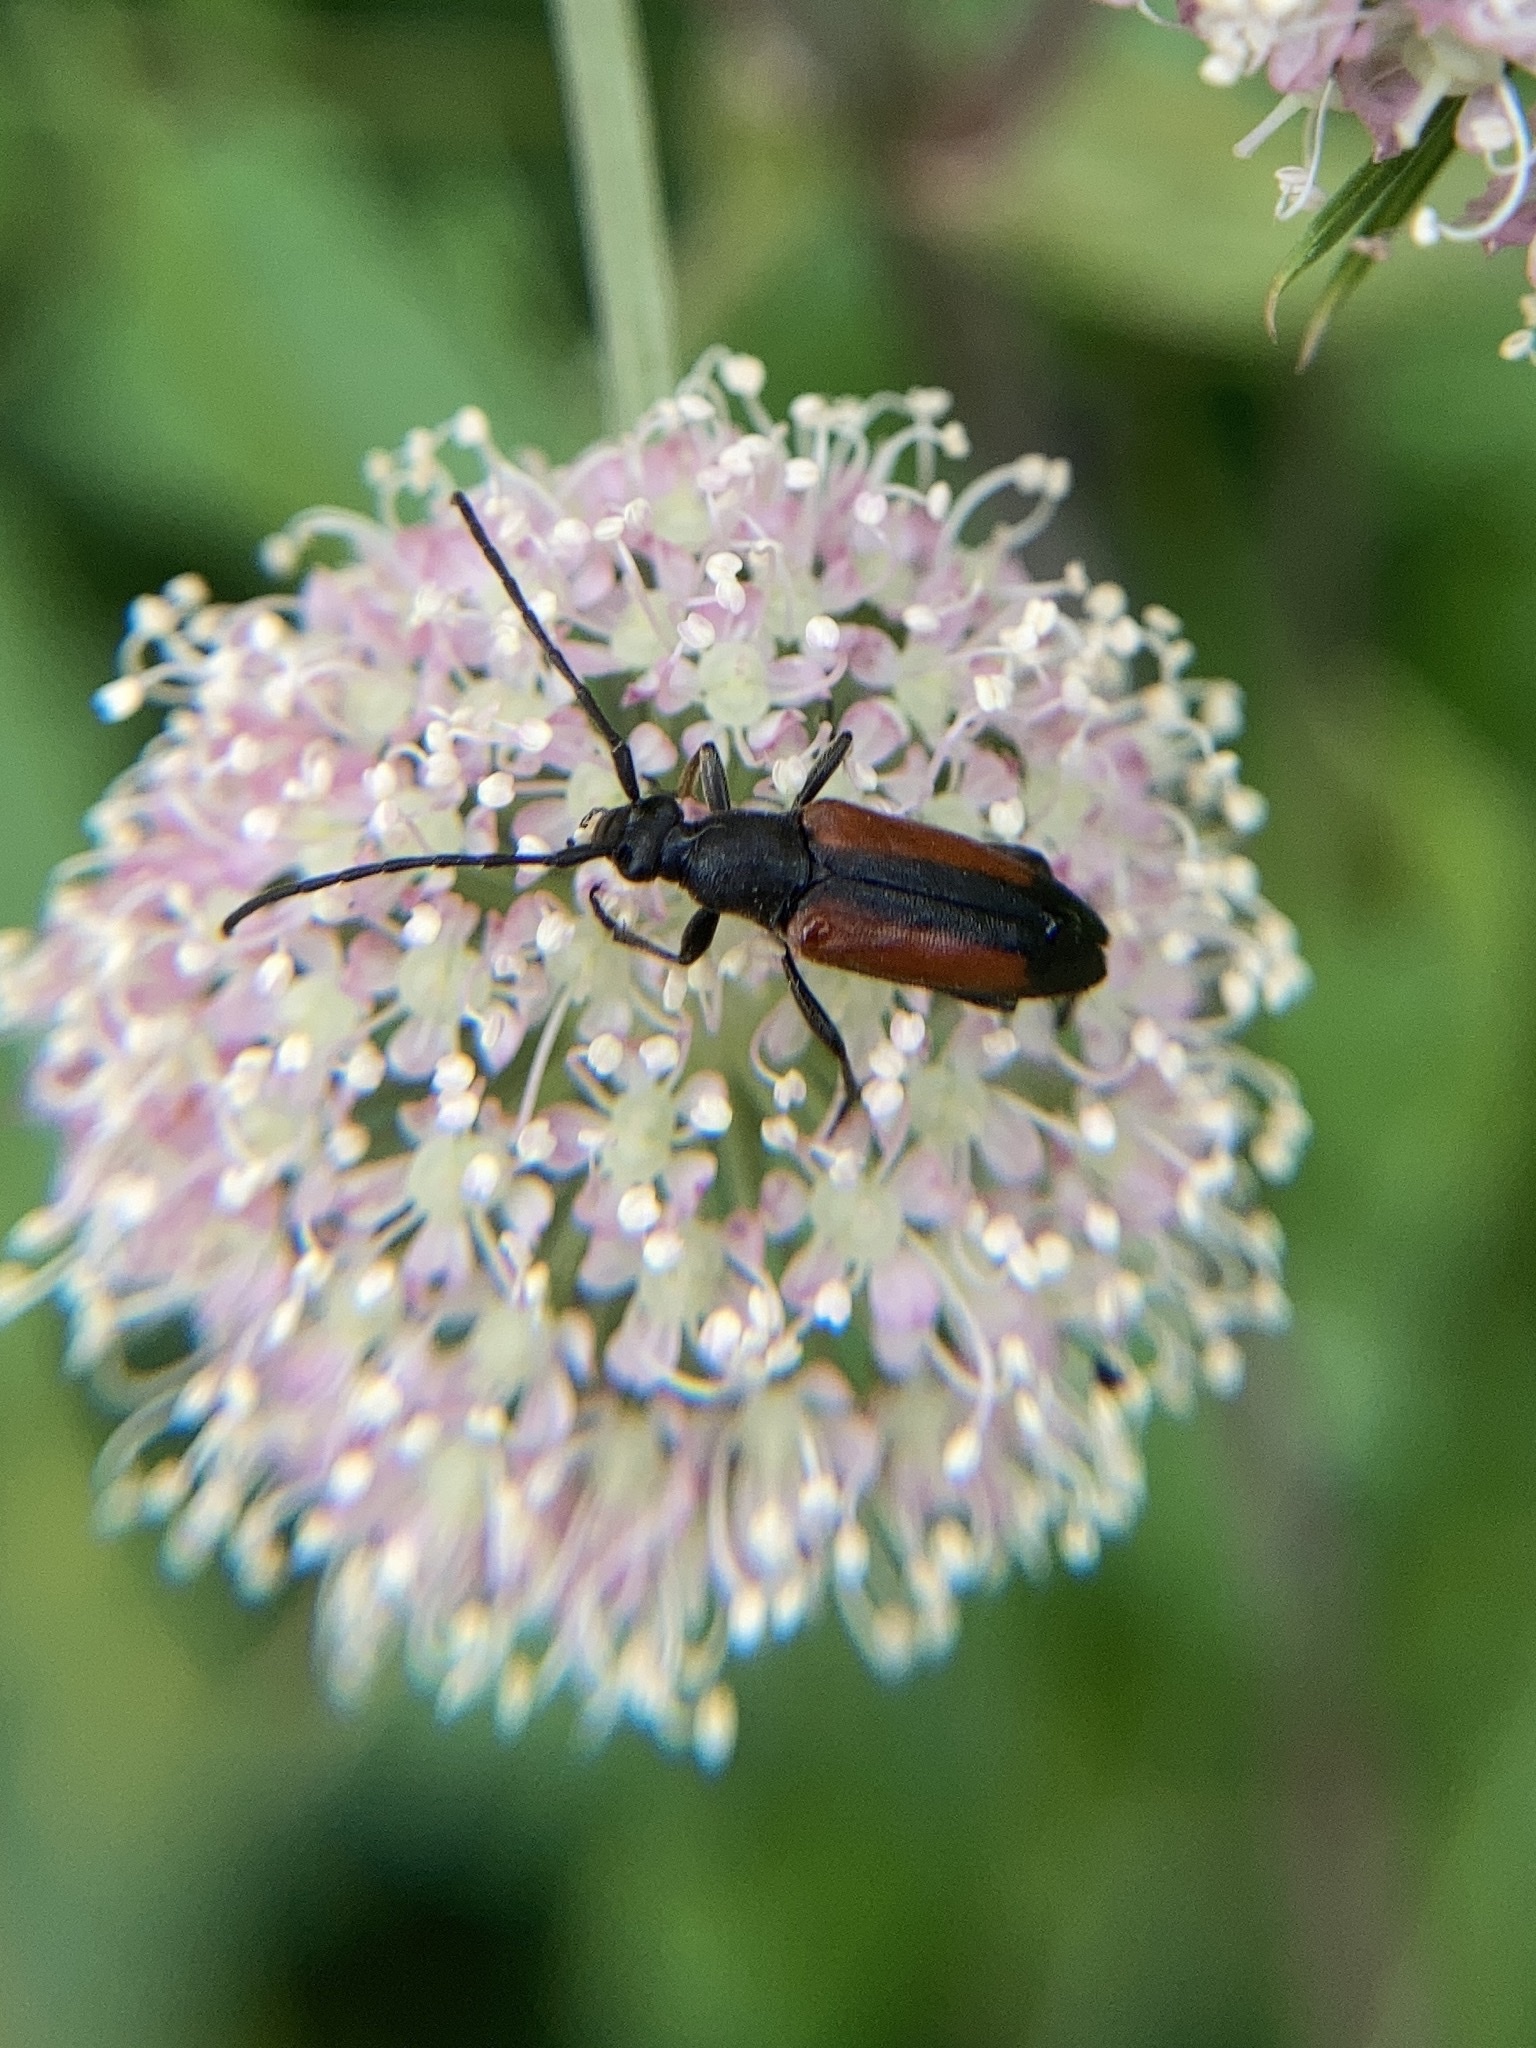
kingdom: Animalia
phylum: Arthropoda
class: Insecta
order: Coleoptera
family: Cerambycidae
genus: Stenurella
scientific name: Stenurella melanura
